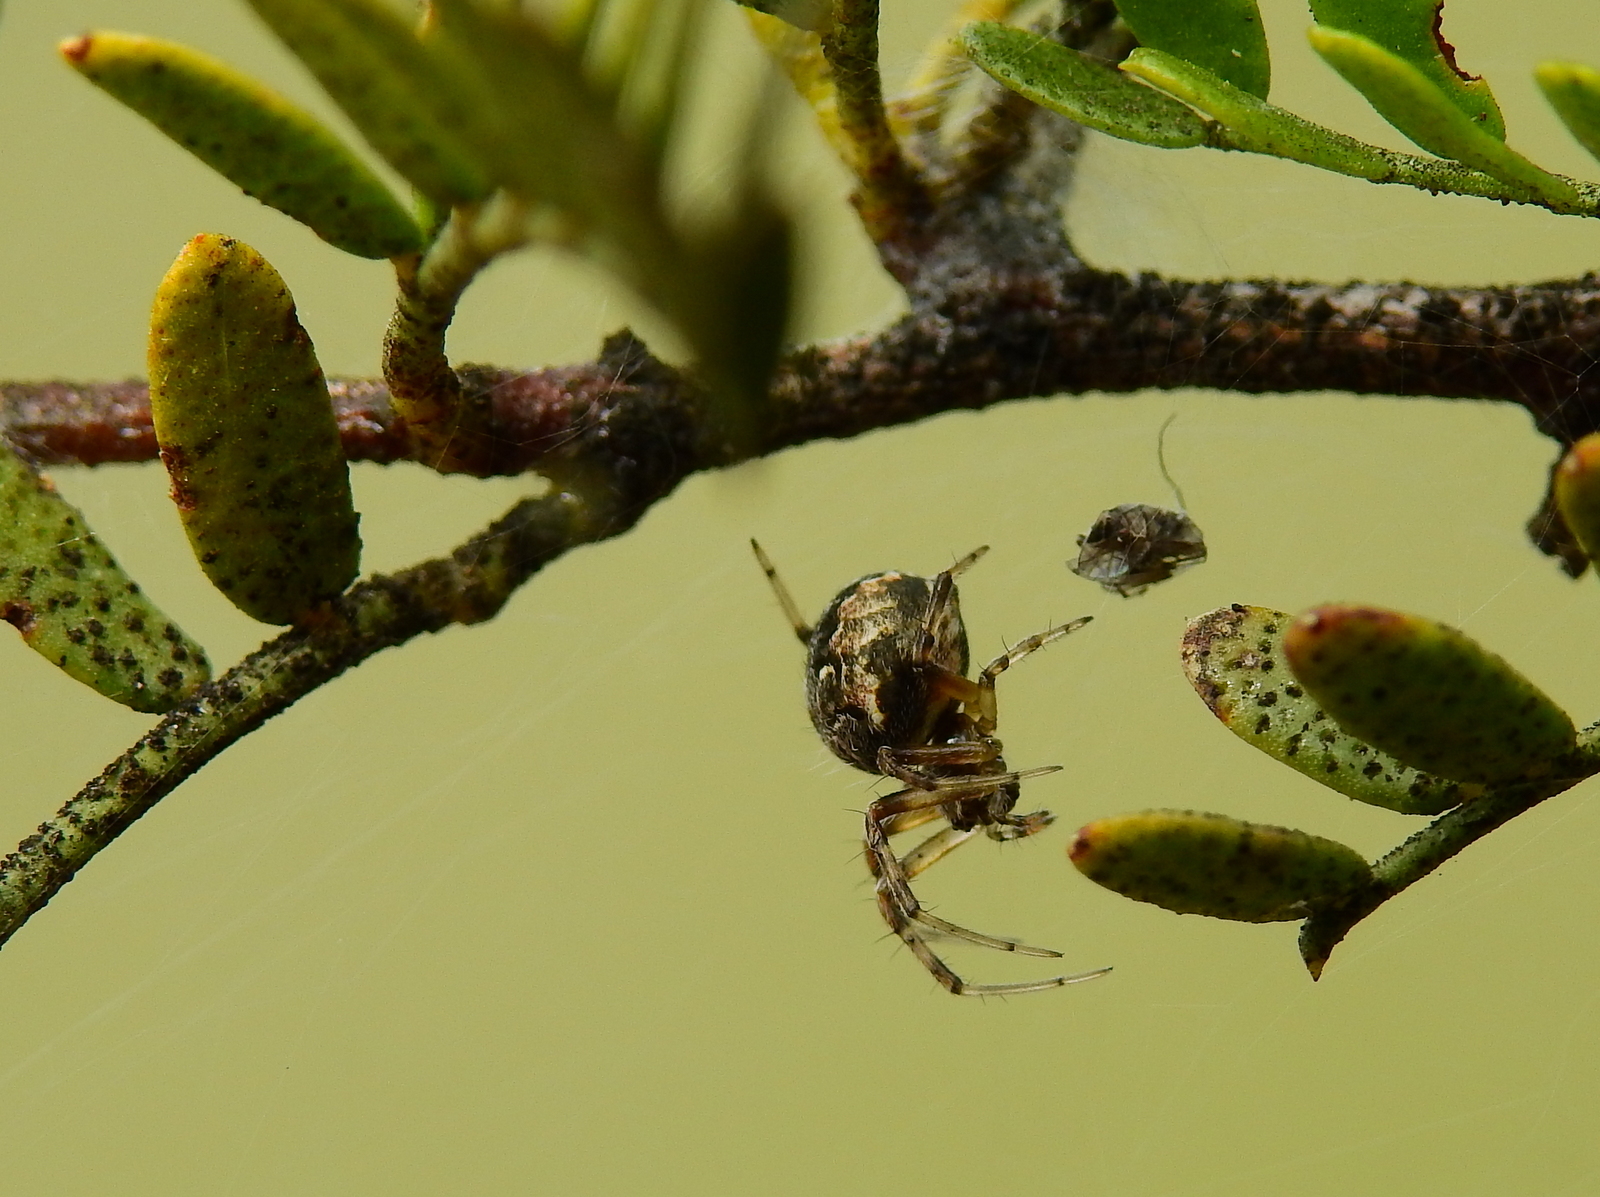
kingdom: Animalia
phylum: Arthropoda
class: Arachnida
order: Araneae
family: Araneidae
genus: Metepeira
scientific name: Metepeira
